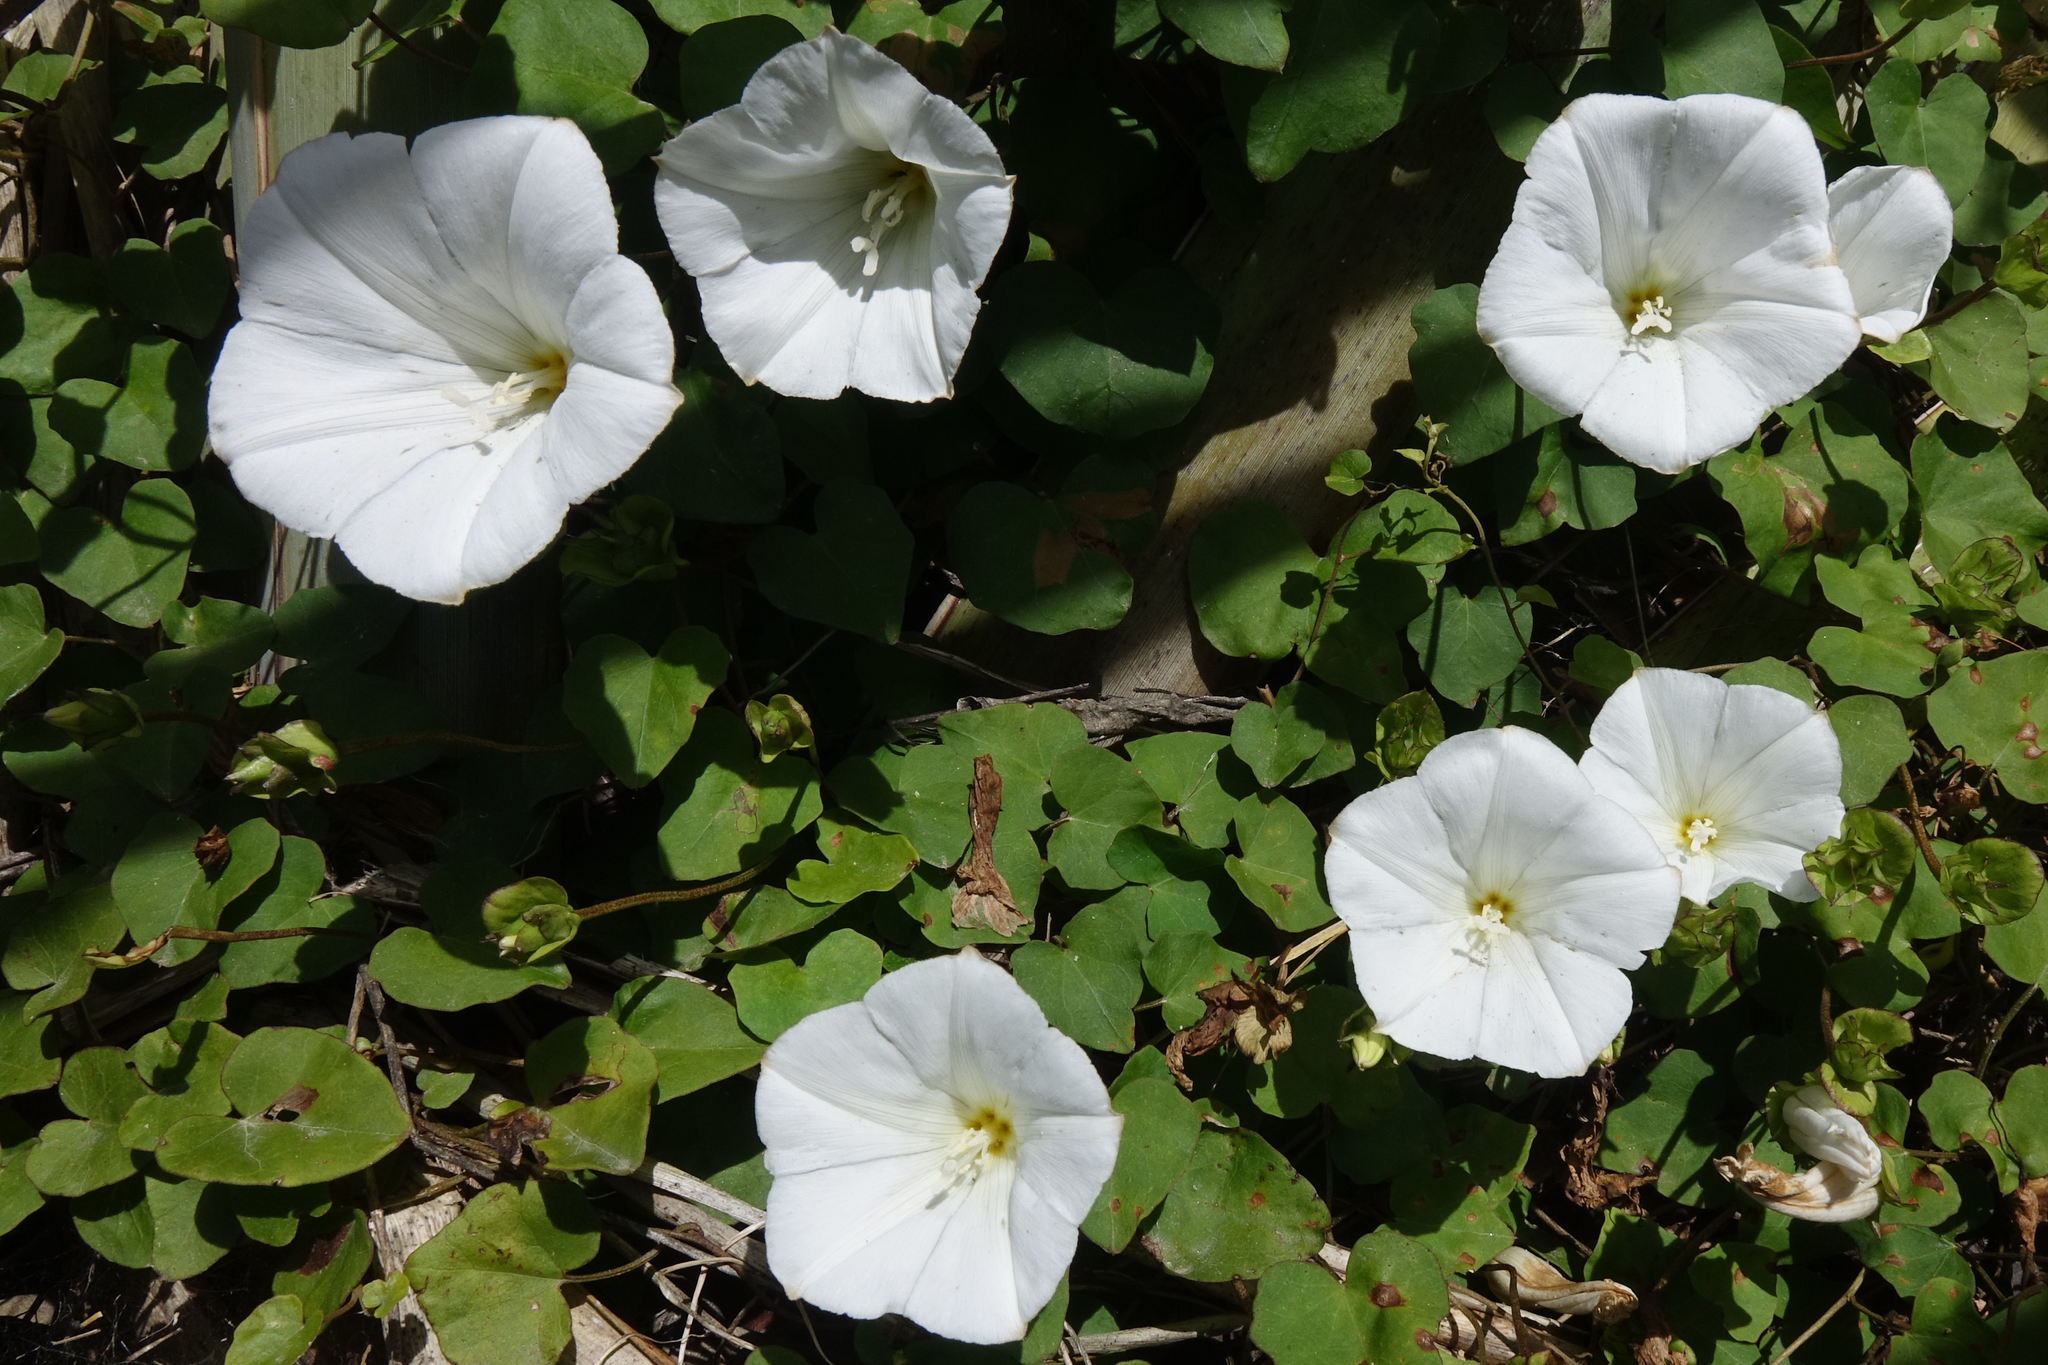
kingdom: Plantae
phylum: Tracheophyta
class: Magnoliopsida
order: Solanales
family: Convolvulaceae
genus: Calystegia
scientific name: Calystegia tuguriorum
